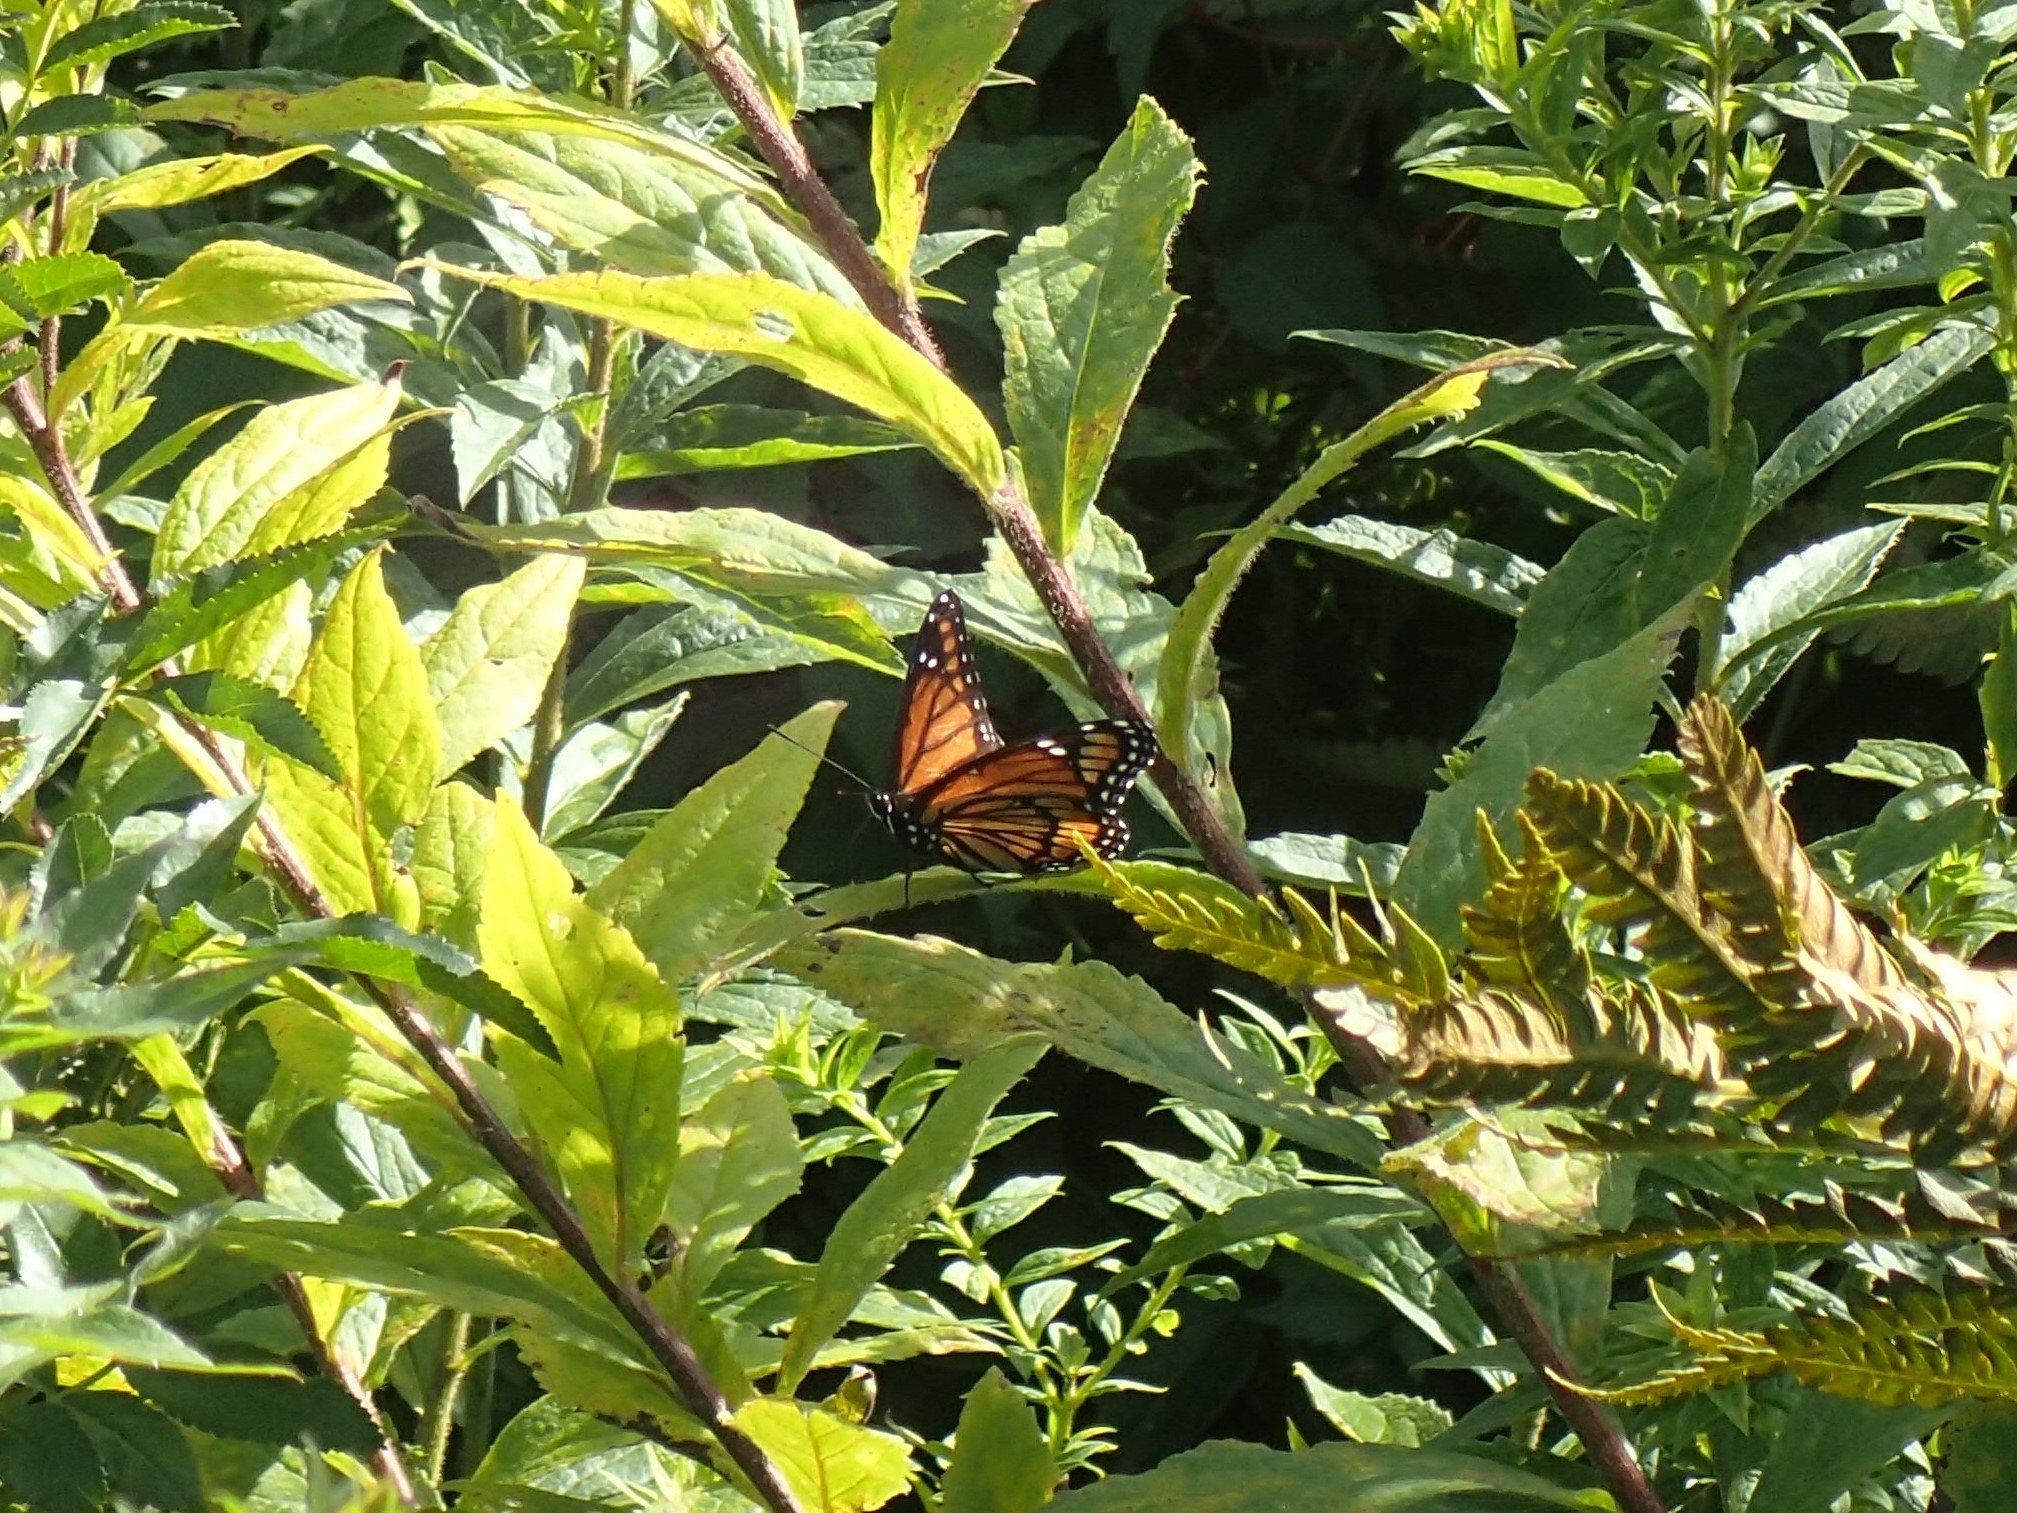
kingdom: Animalia
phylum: Arthropoda
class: Insecta
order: Lepidoptera
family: Nymphalidae
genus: Limenitis
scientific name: Limenitis archippus
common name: Viceroy
